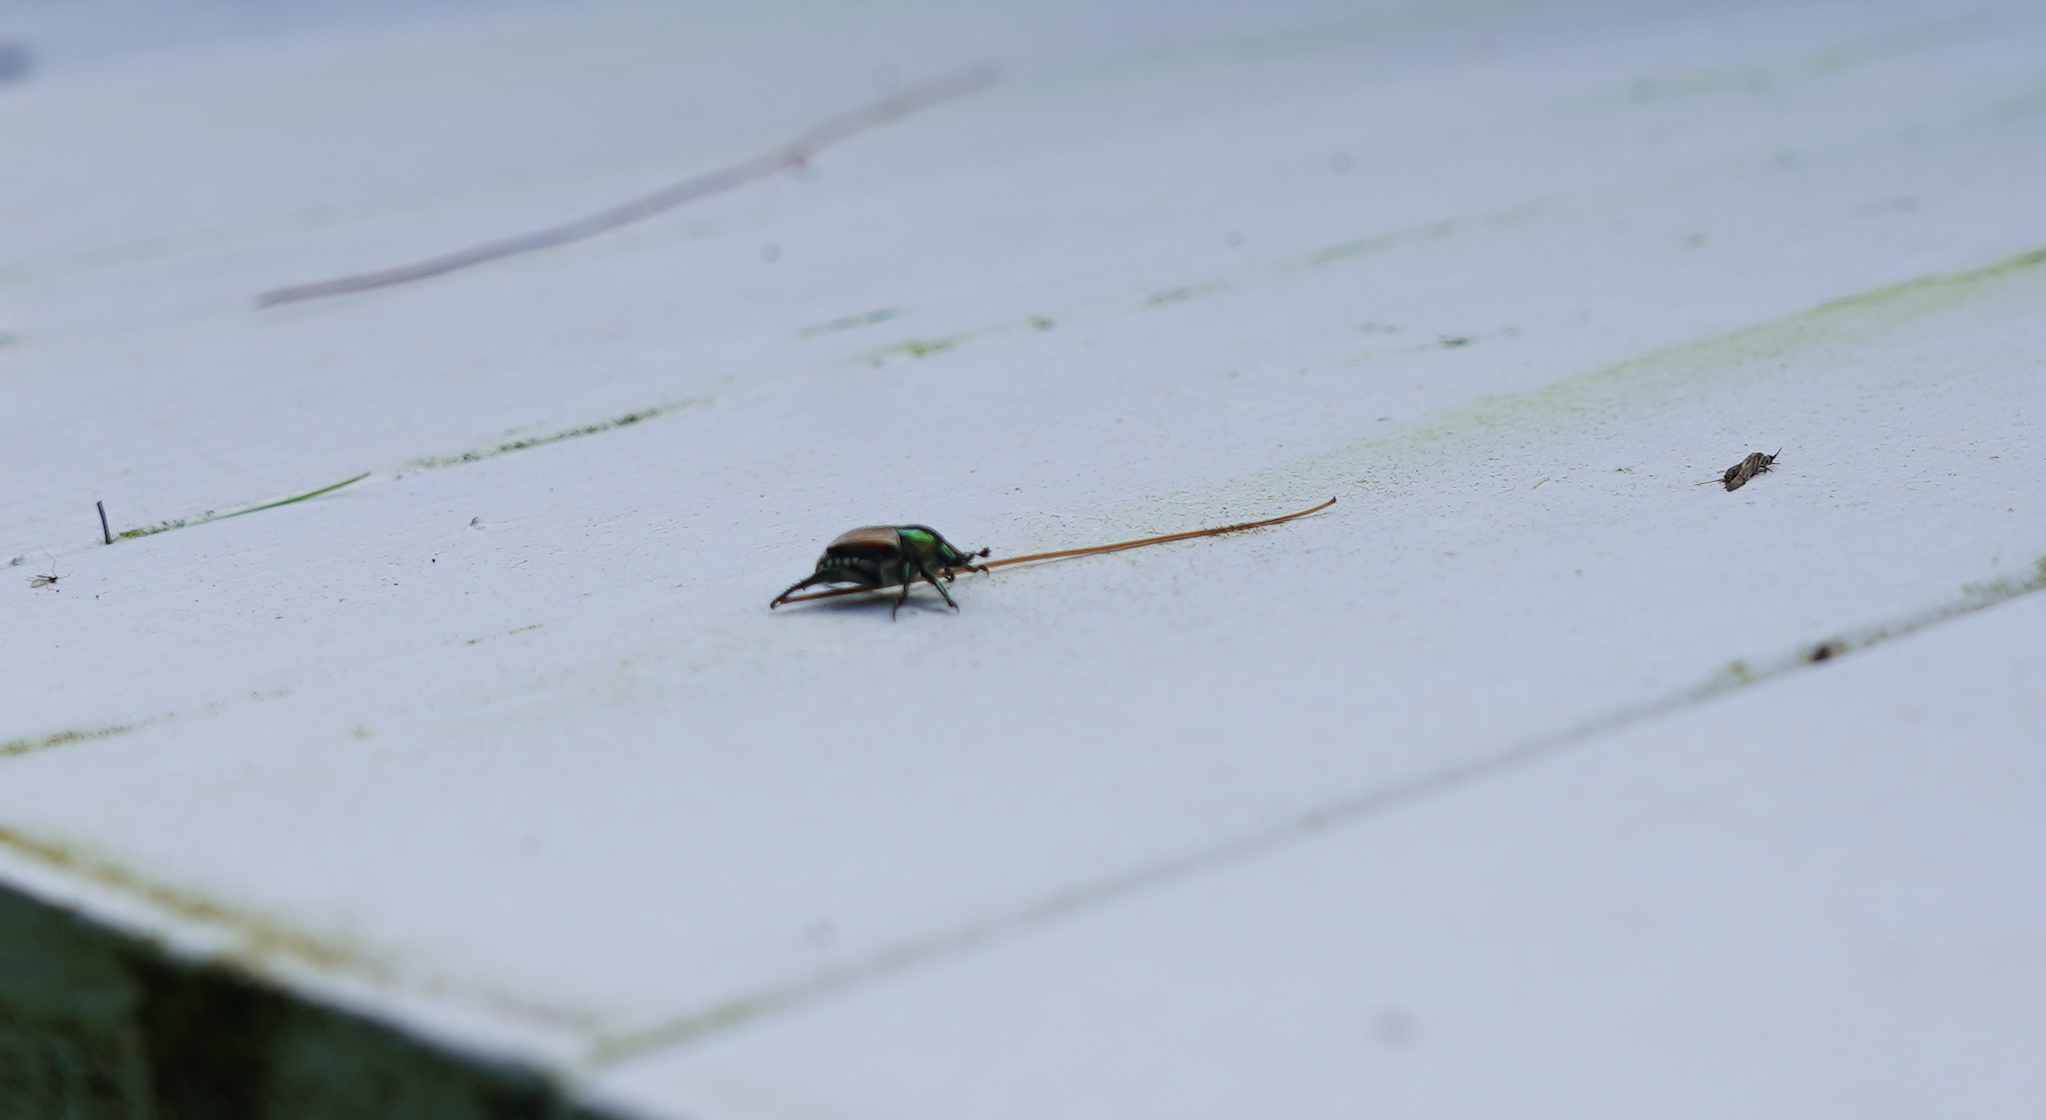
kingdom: Animalia
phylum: Arthropoda
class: Insecta
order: Coleoptera
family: Scarabaeidae
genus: Popillia
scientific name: Popillia japonica
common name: Japanese beetle
